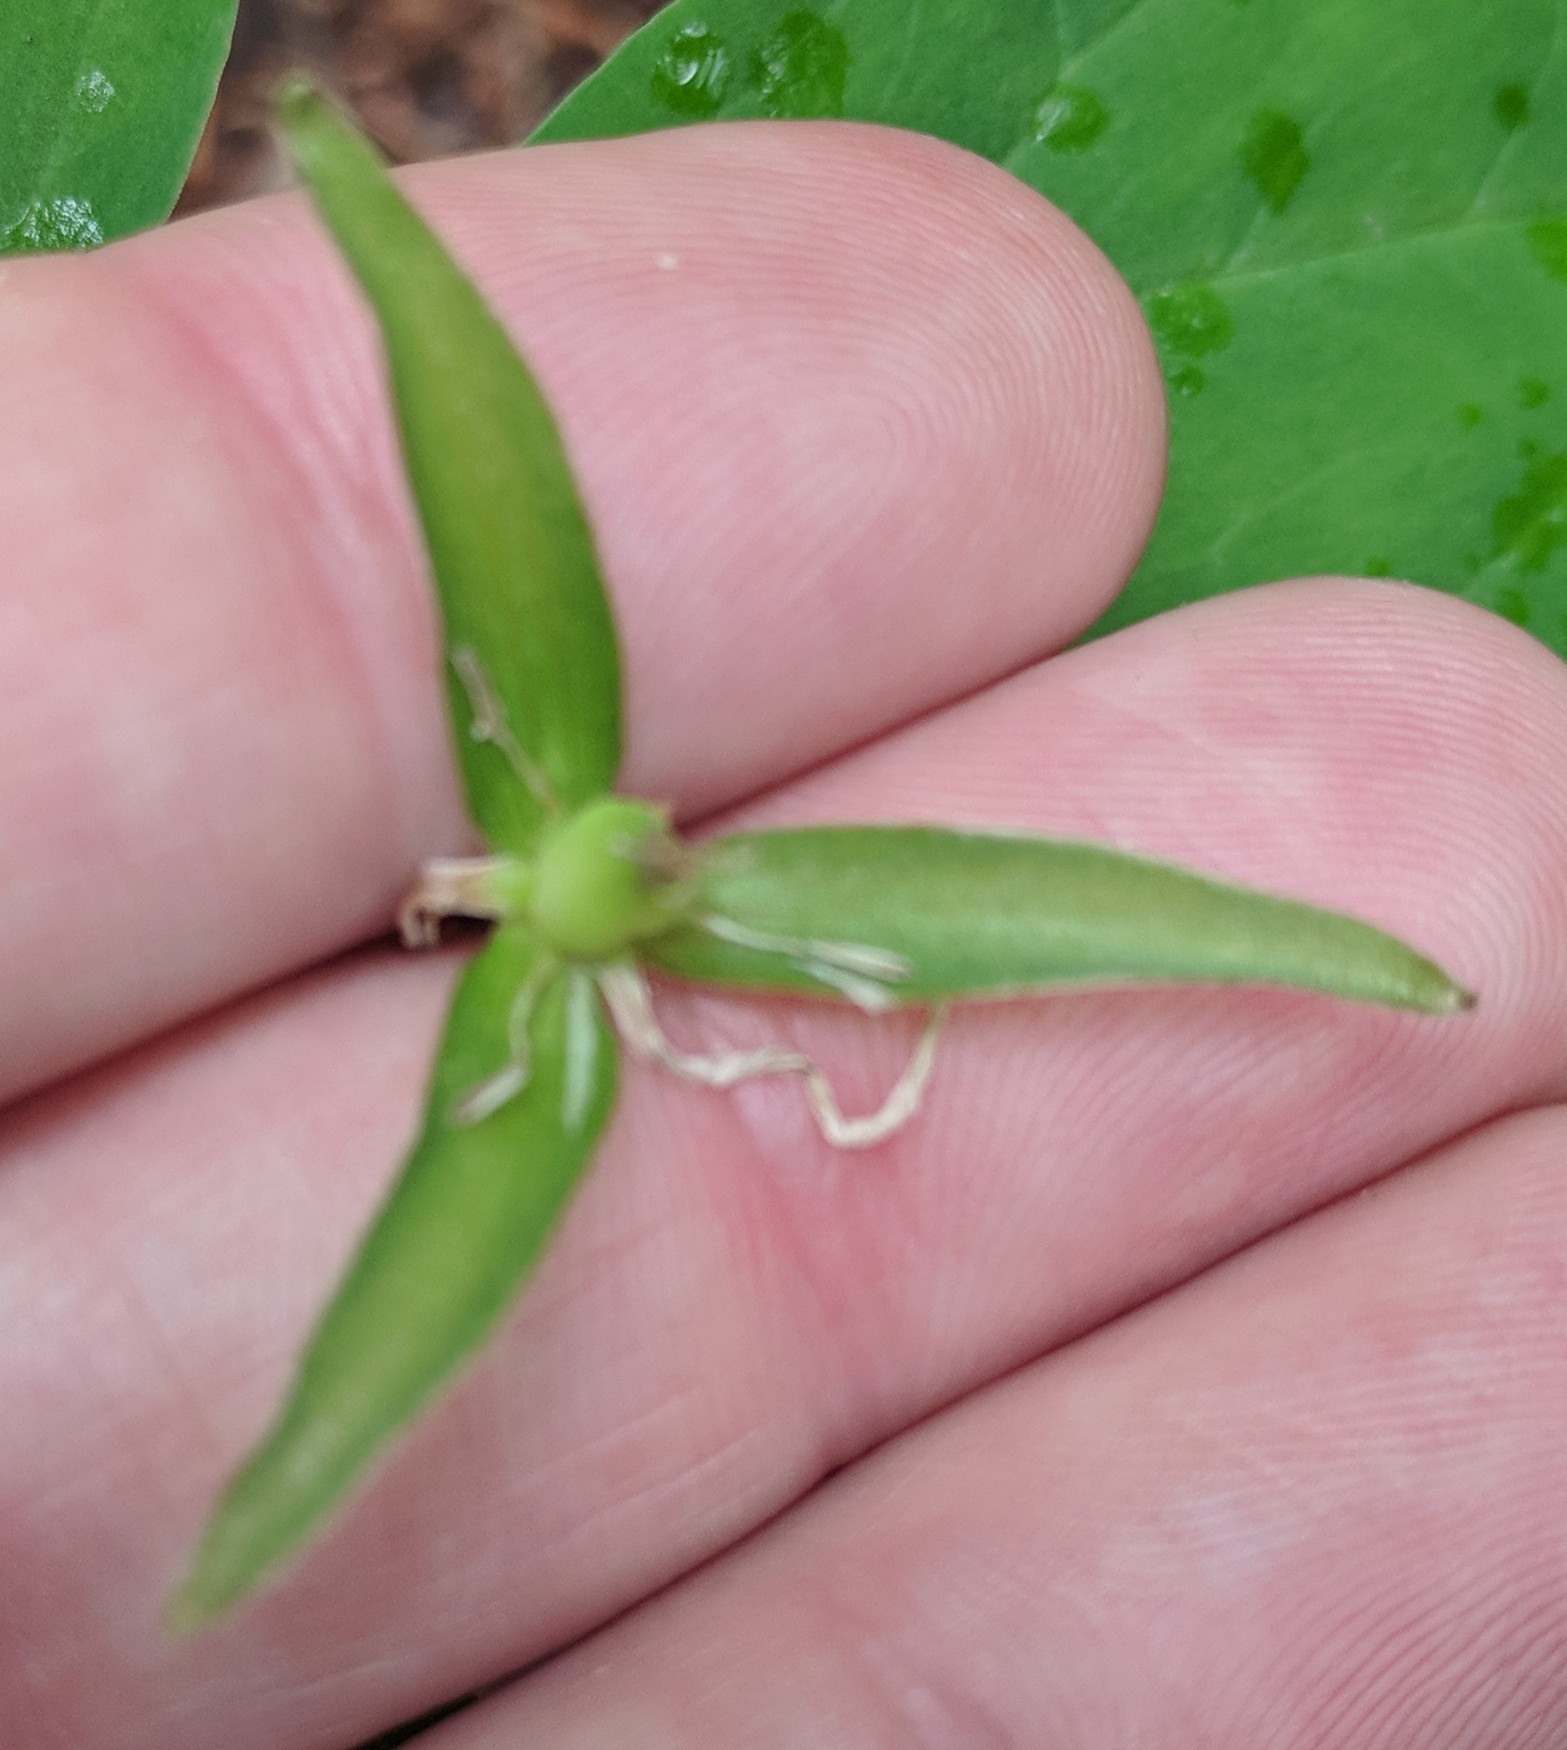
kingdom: Plantae
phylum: Tracheophyta
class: Liliopsida
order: Liliales
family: Melanthiaceae
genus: Trillium
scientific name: Trillium undulatum
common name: Paint trillium
